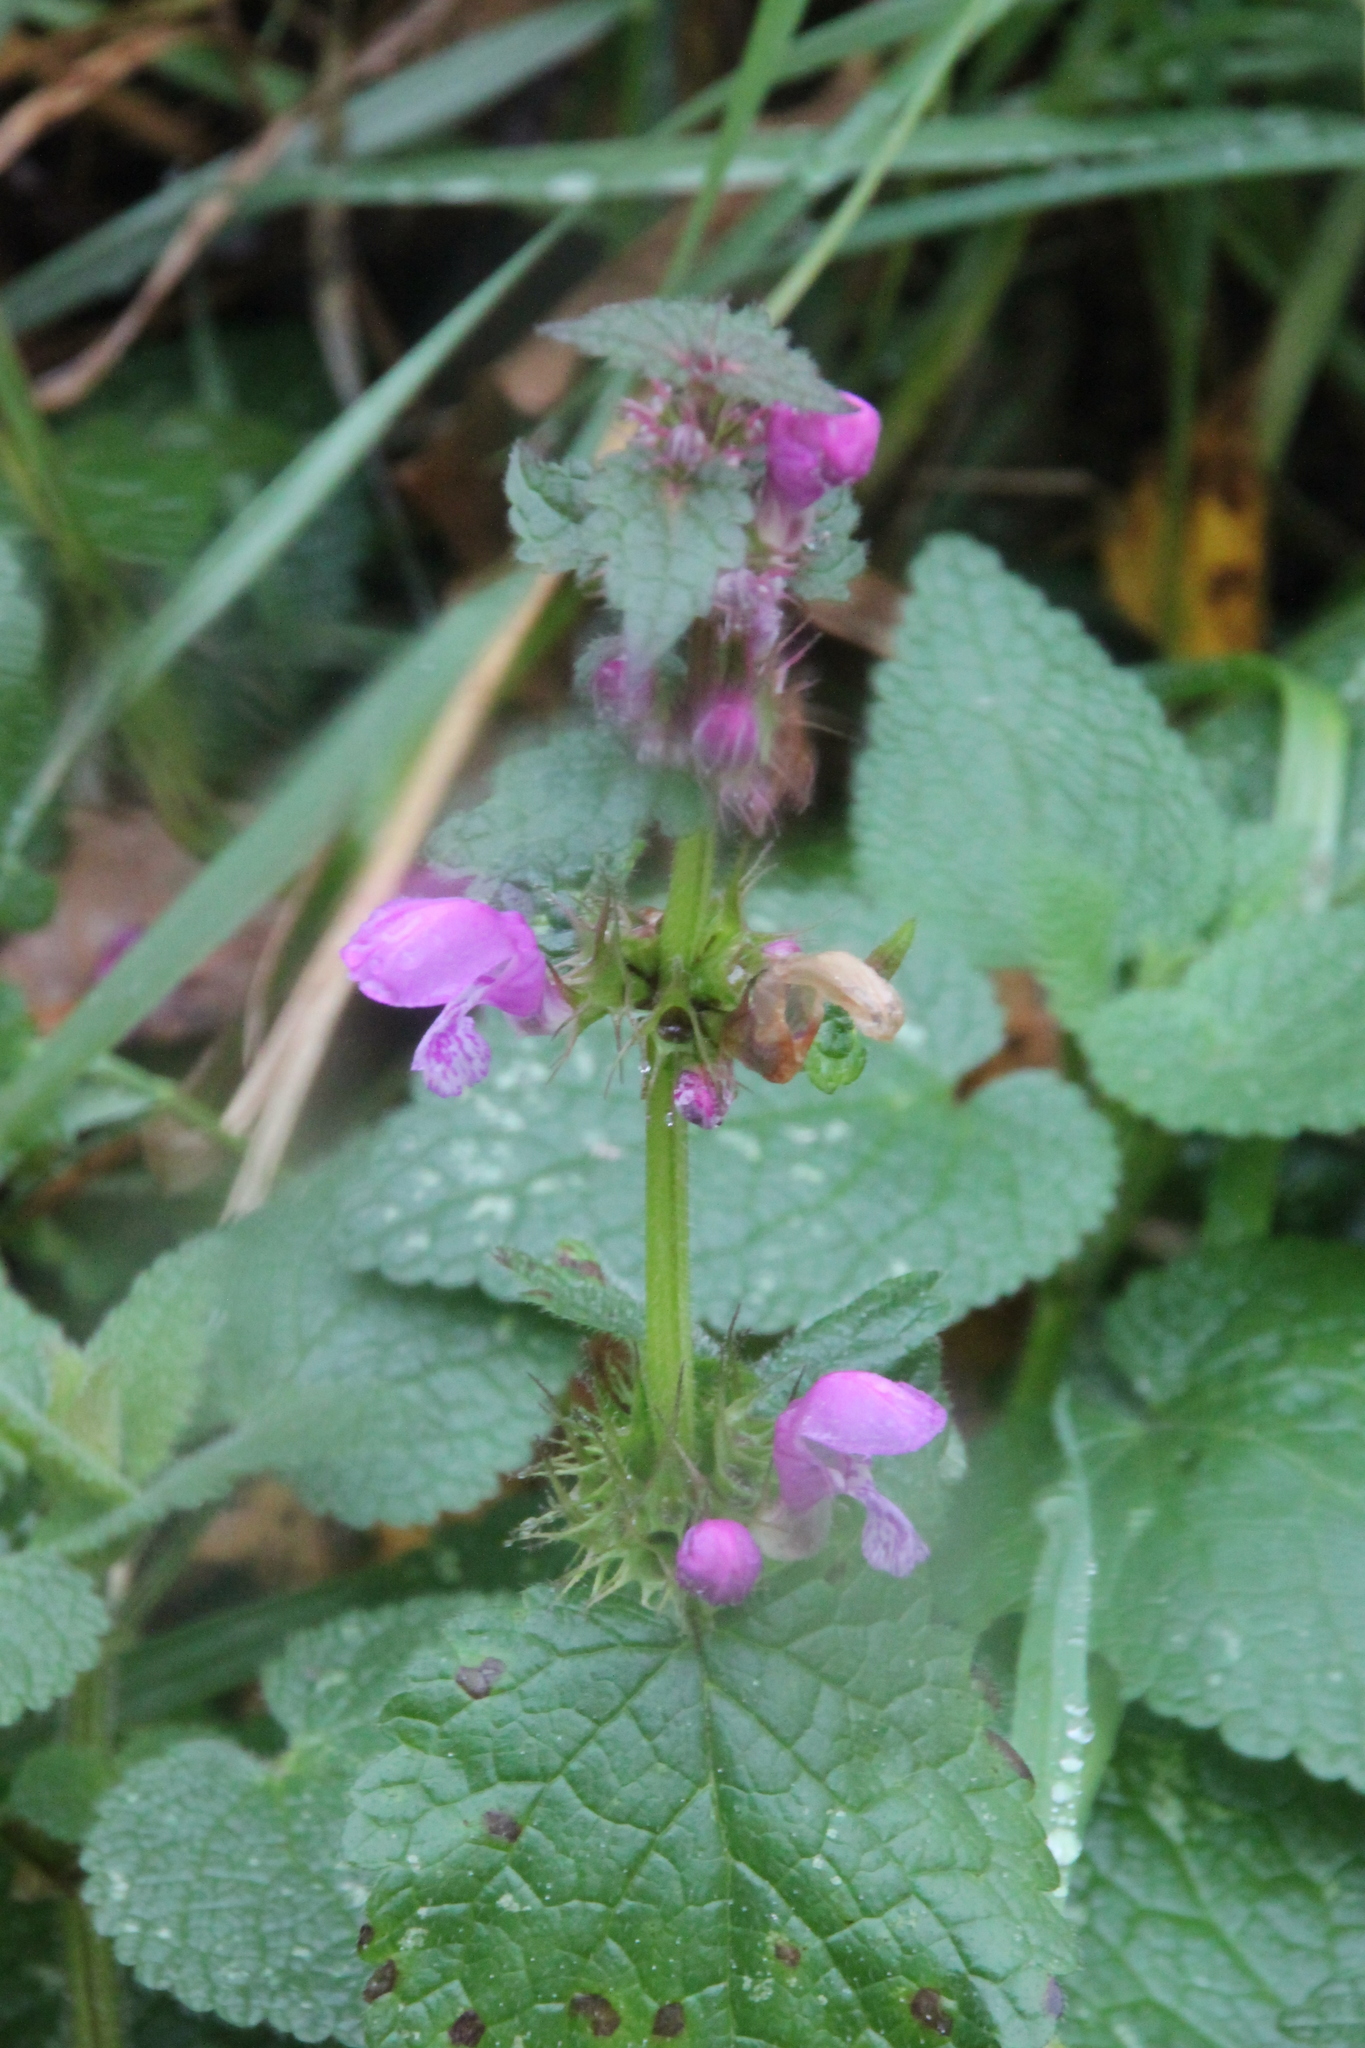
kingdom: Plantae
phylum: Tracheophyta
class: Magnoliopsida
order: Lamiales
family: Lamiaceae
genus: Lamium
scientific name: Lamium maculatum
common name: Spotted dead-nettle
